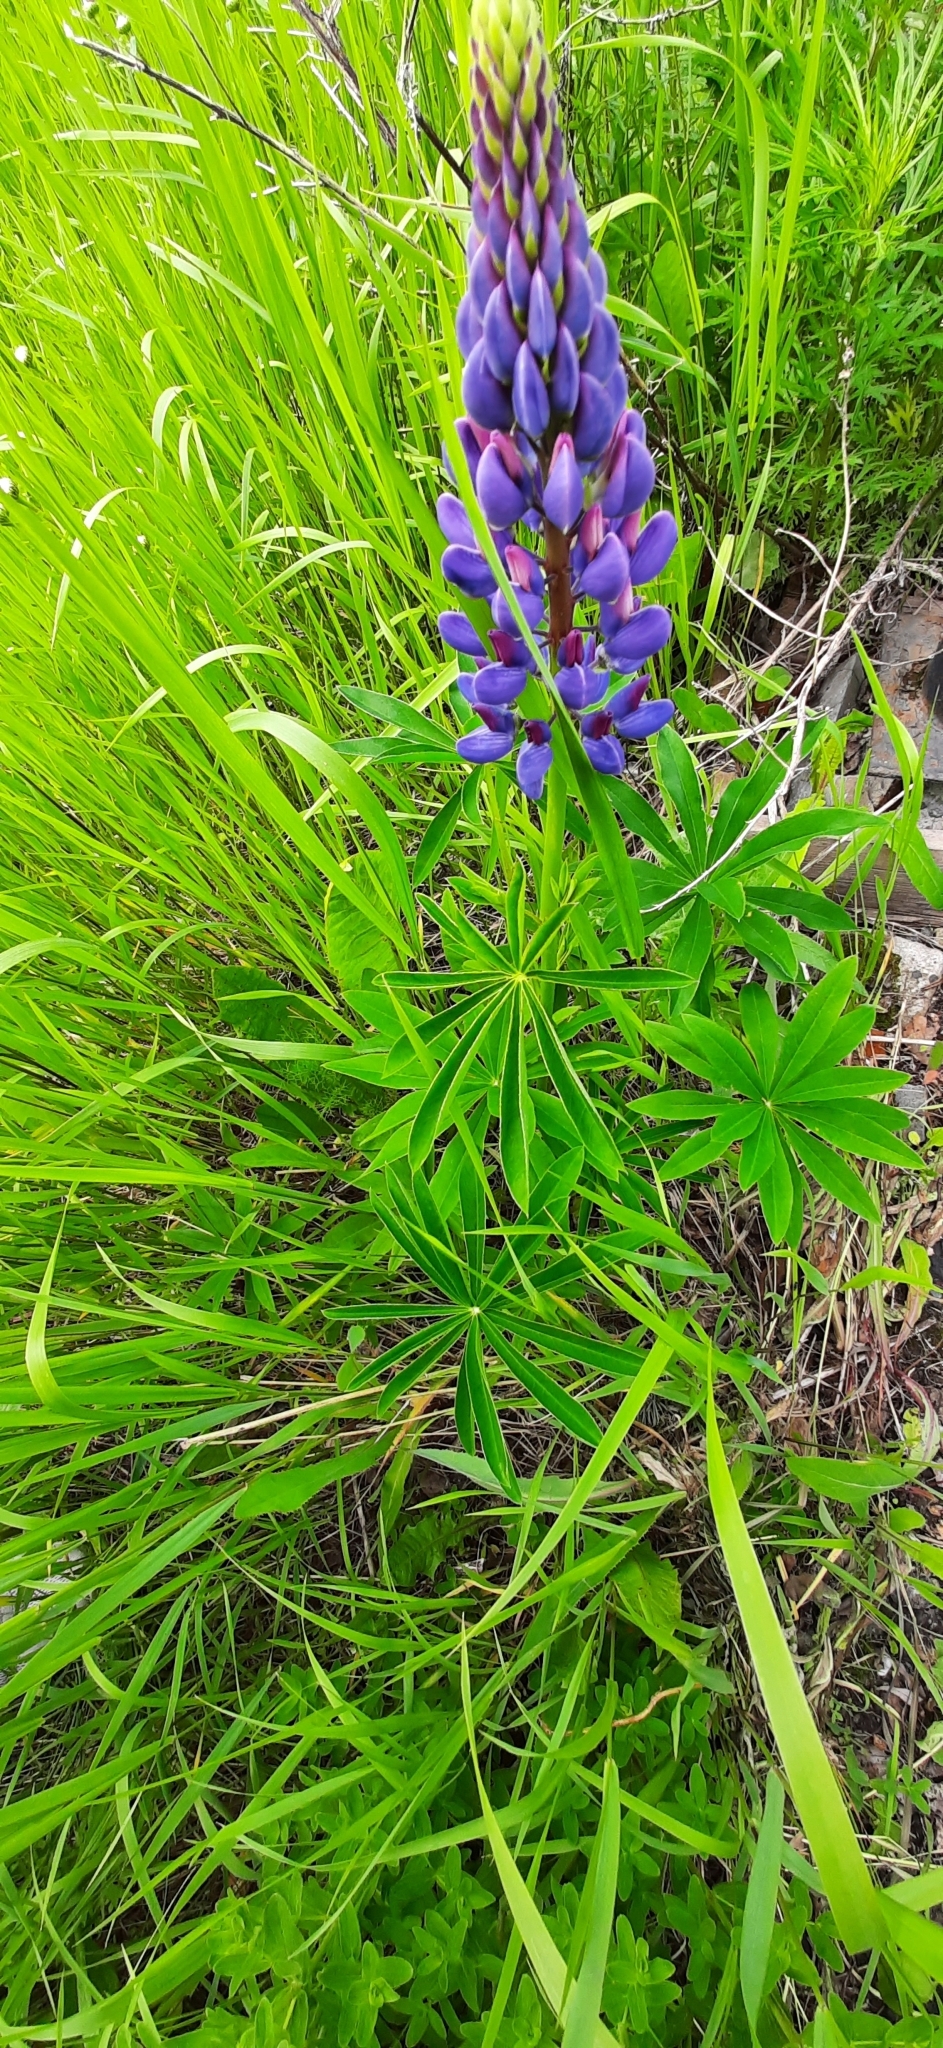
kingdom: Plantae
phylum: Tracheophyta
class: Magnoliopsida
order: Fabales
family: Fabaceae
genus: Lupinus
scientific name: Lupinus polyphyllus
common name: Garden lupin
